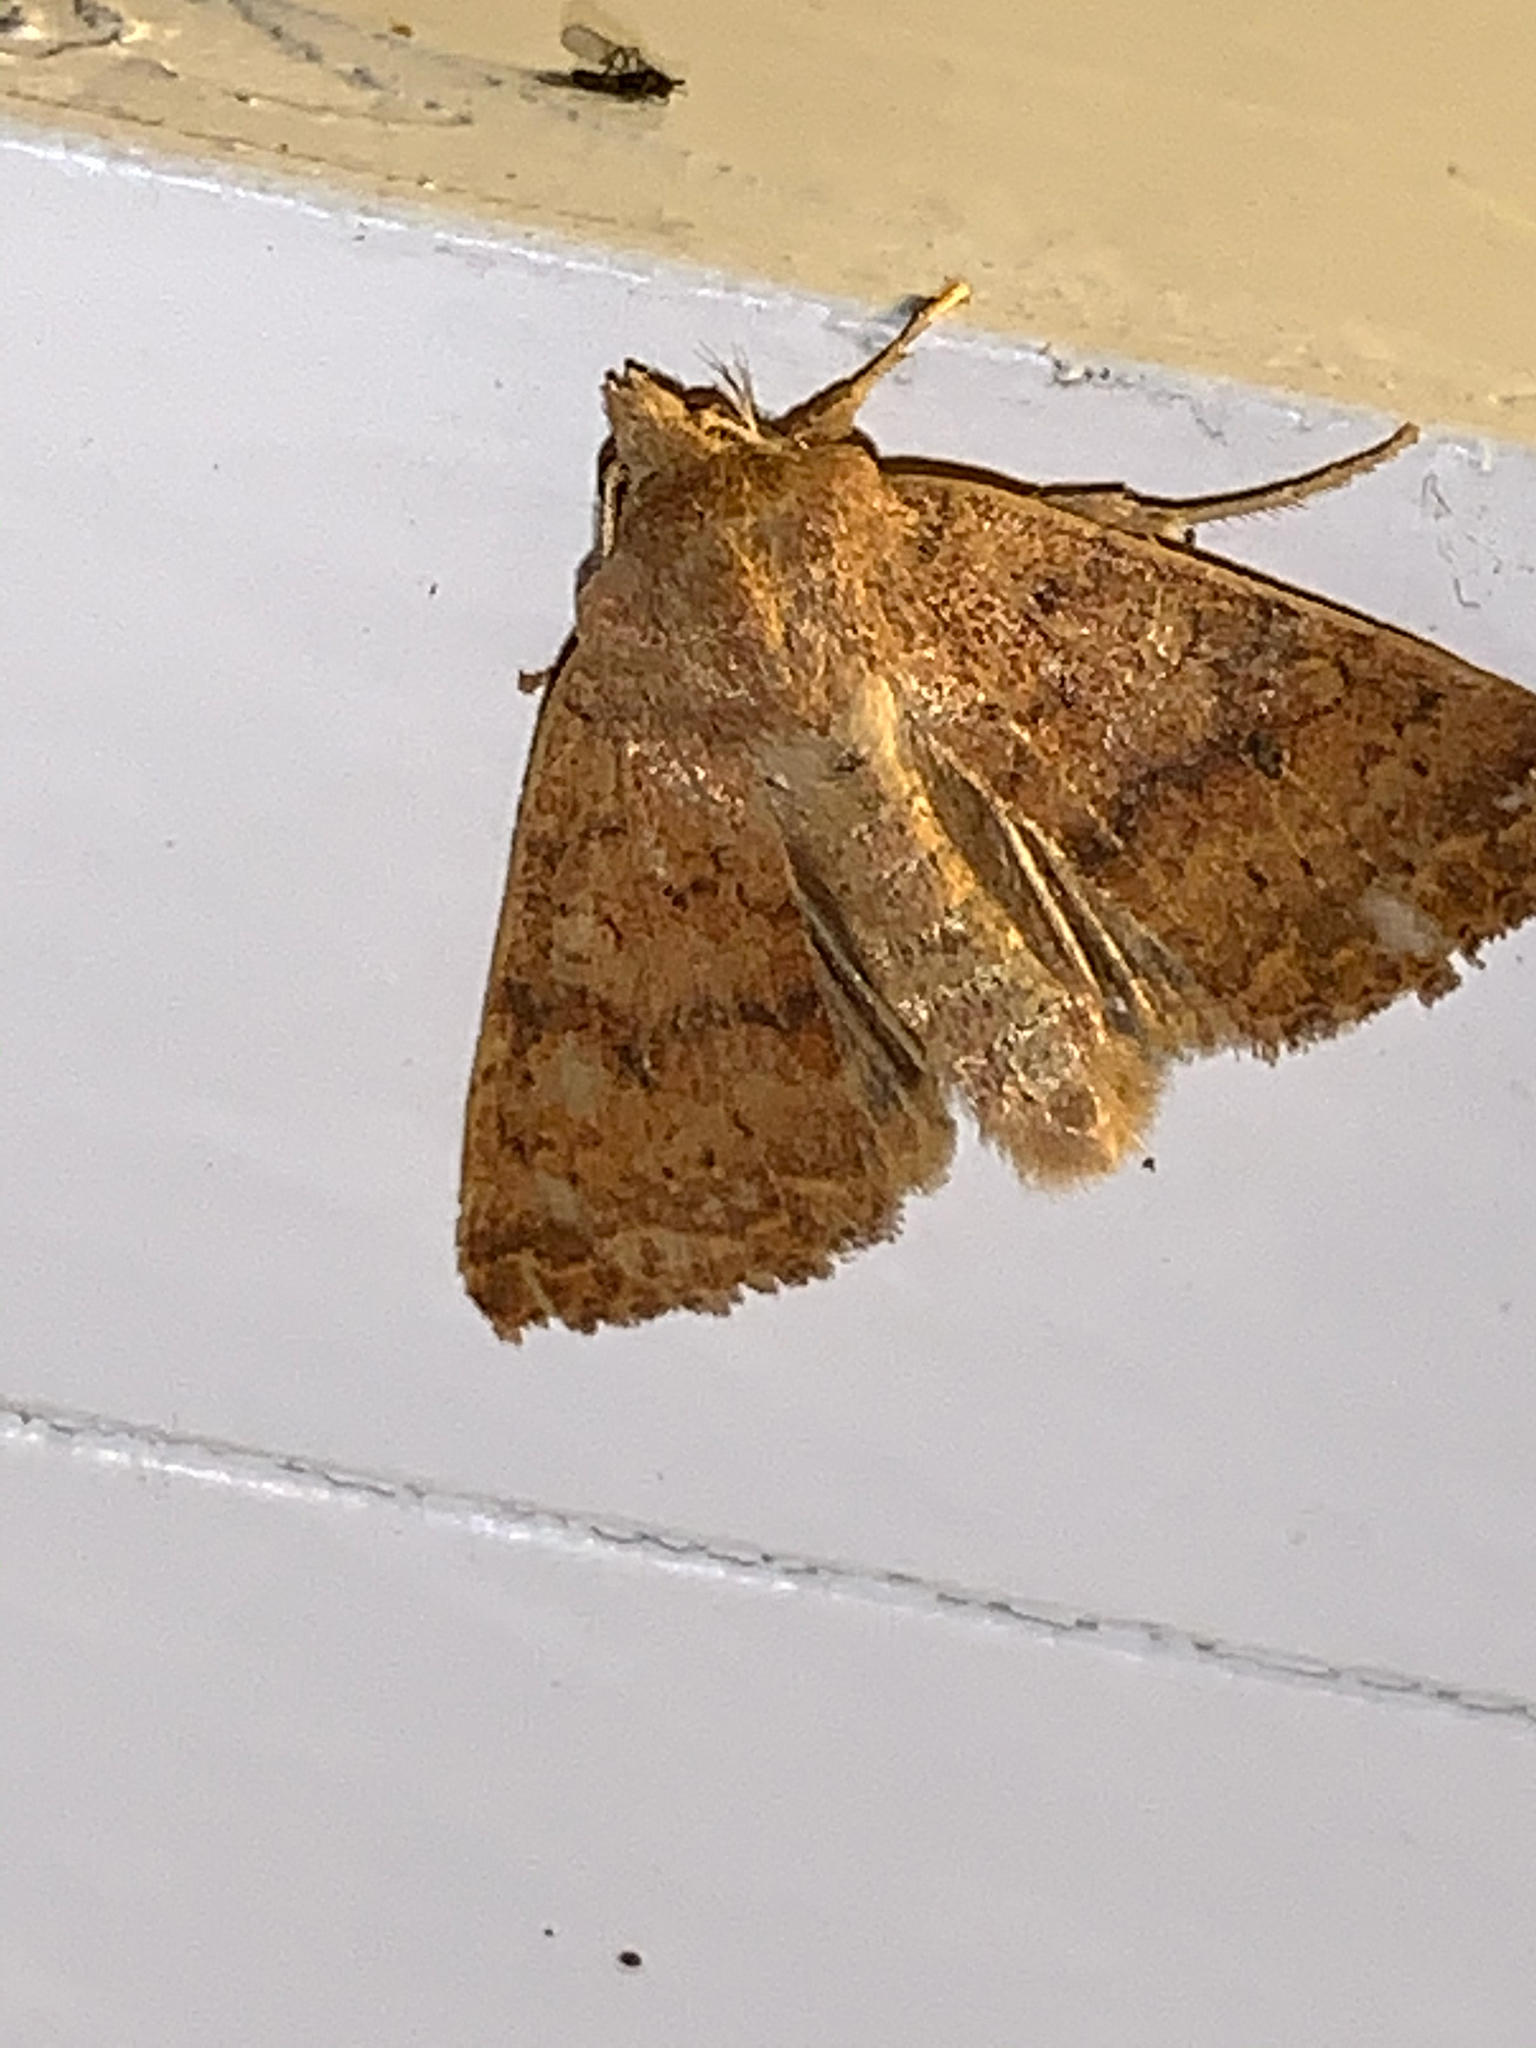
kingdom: Animalia
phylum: Arthropoda
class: Insecta
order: Lepidoptera
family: Noctuidae
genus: Agrochola
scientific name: Agrochola bicolorago
